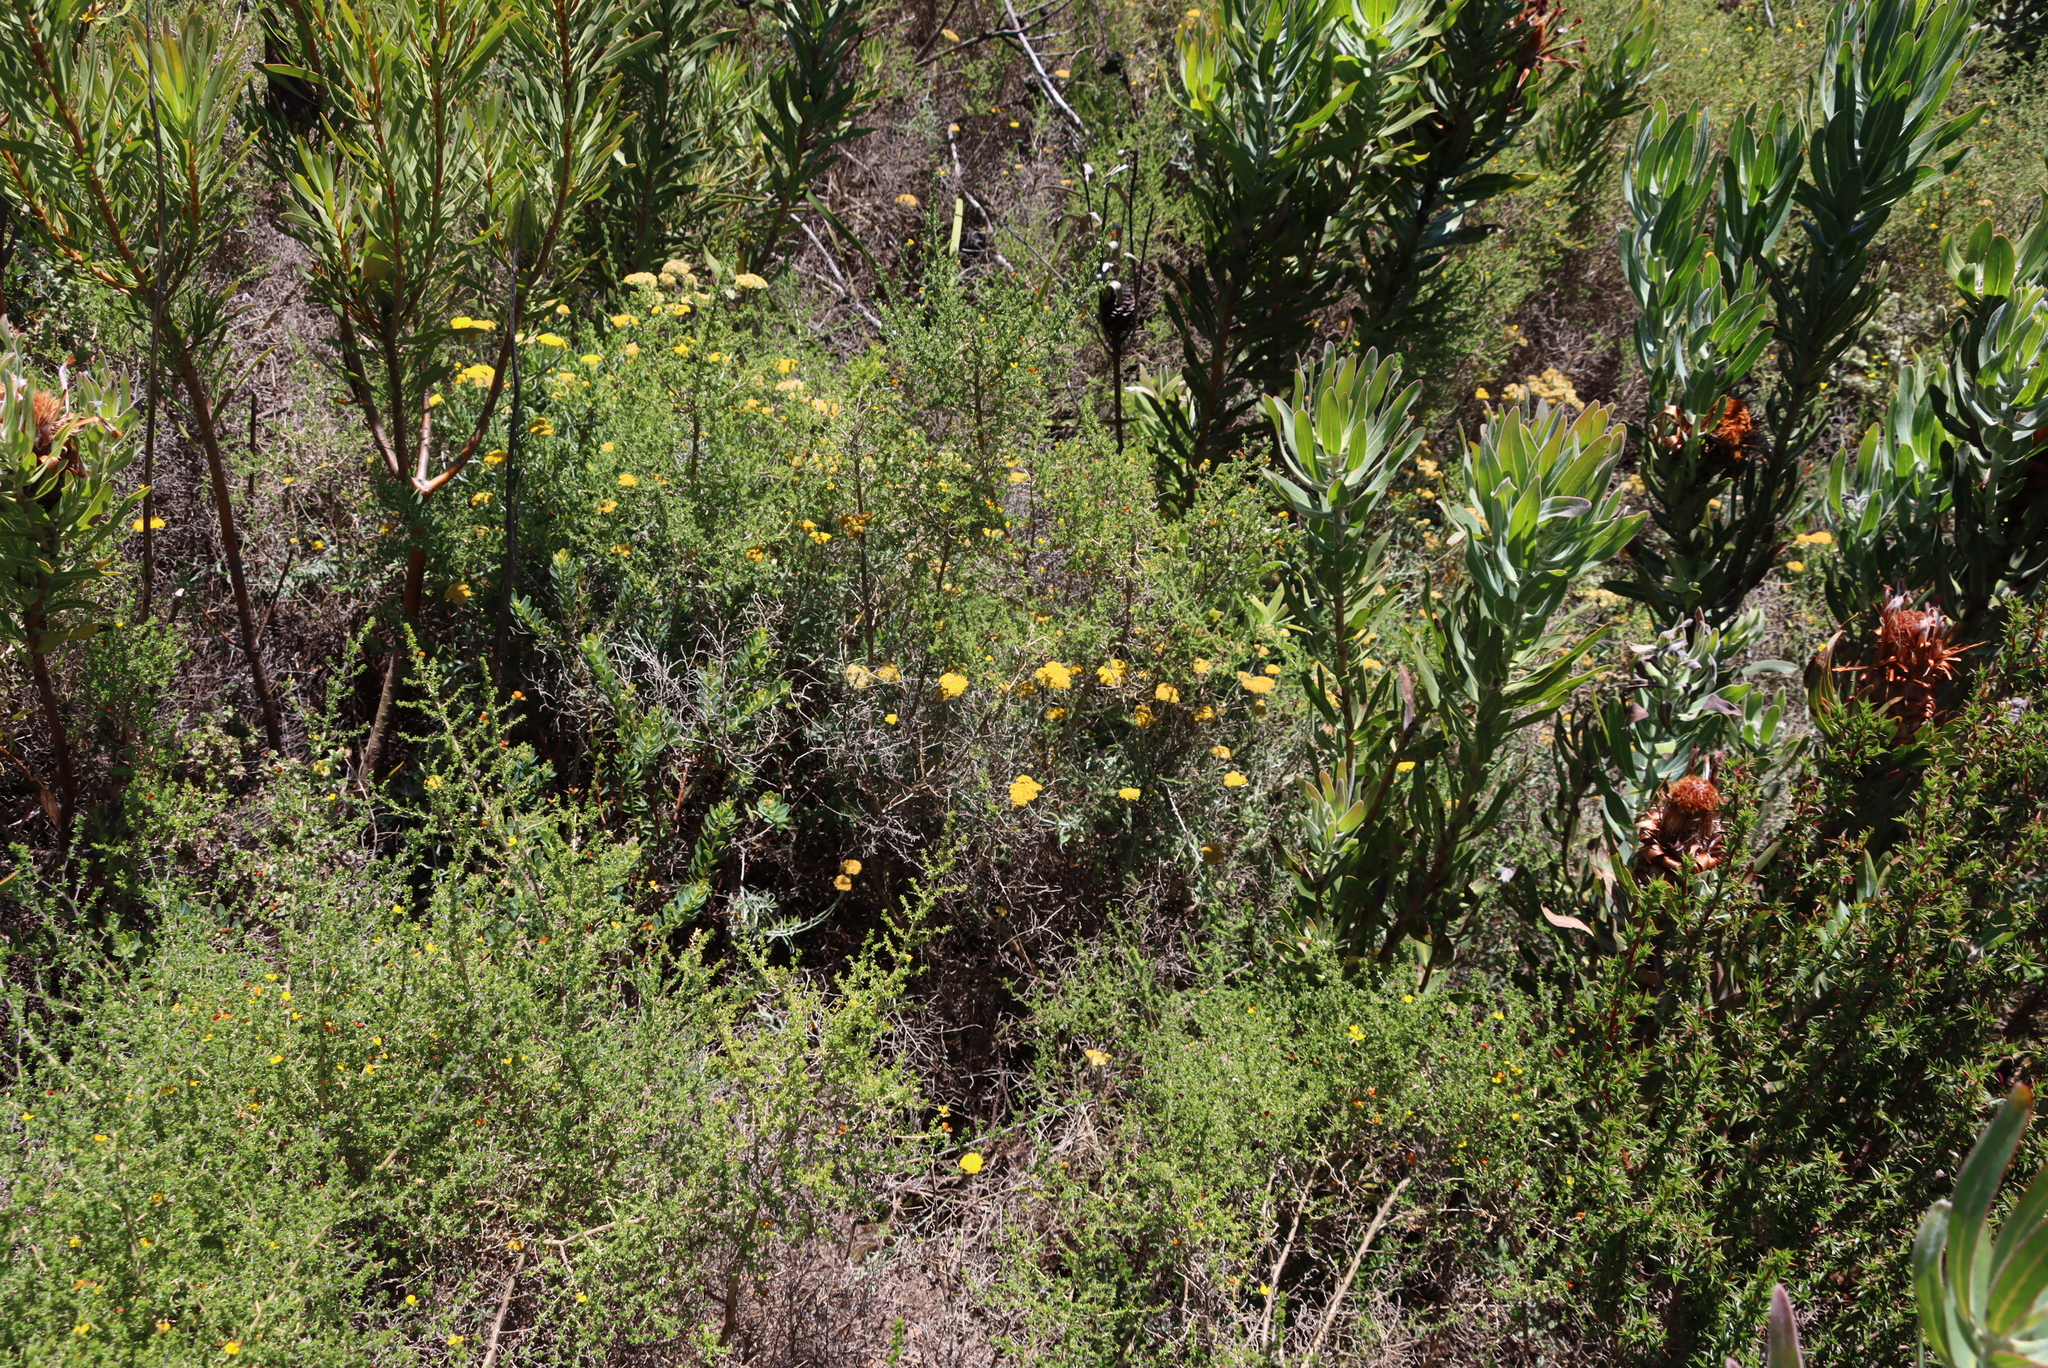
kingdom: Plantae
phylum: Tracheophyta
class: Magnoliopsida
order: Proteales
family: Proteaceae
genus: Hakea
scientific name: Hakea sericea
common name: Needle bush
